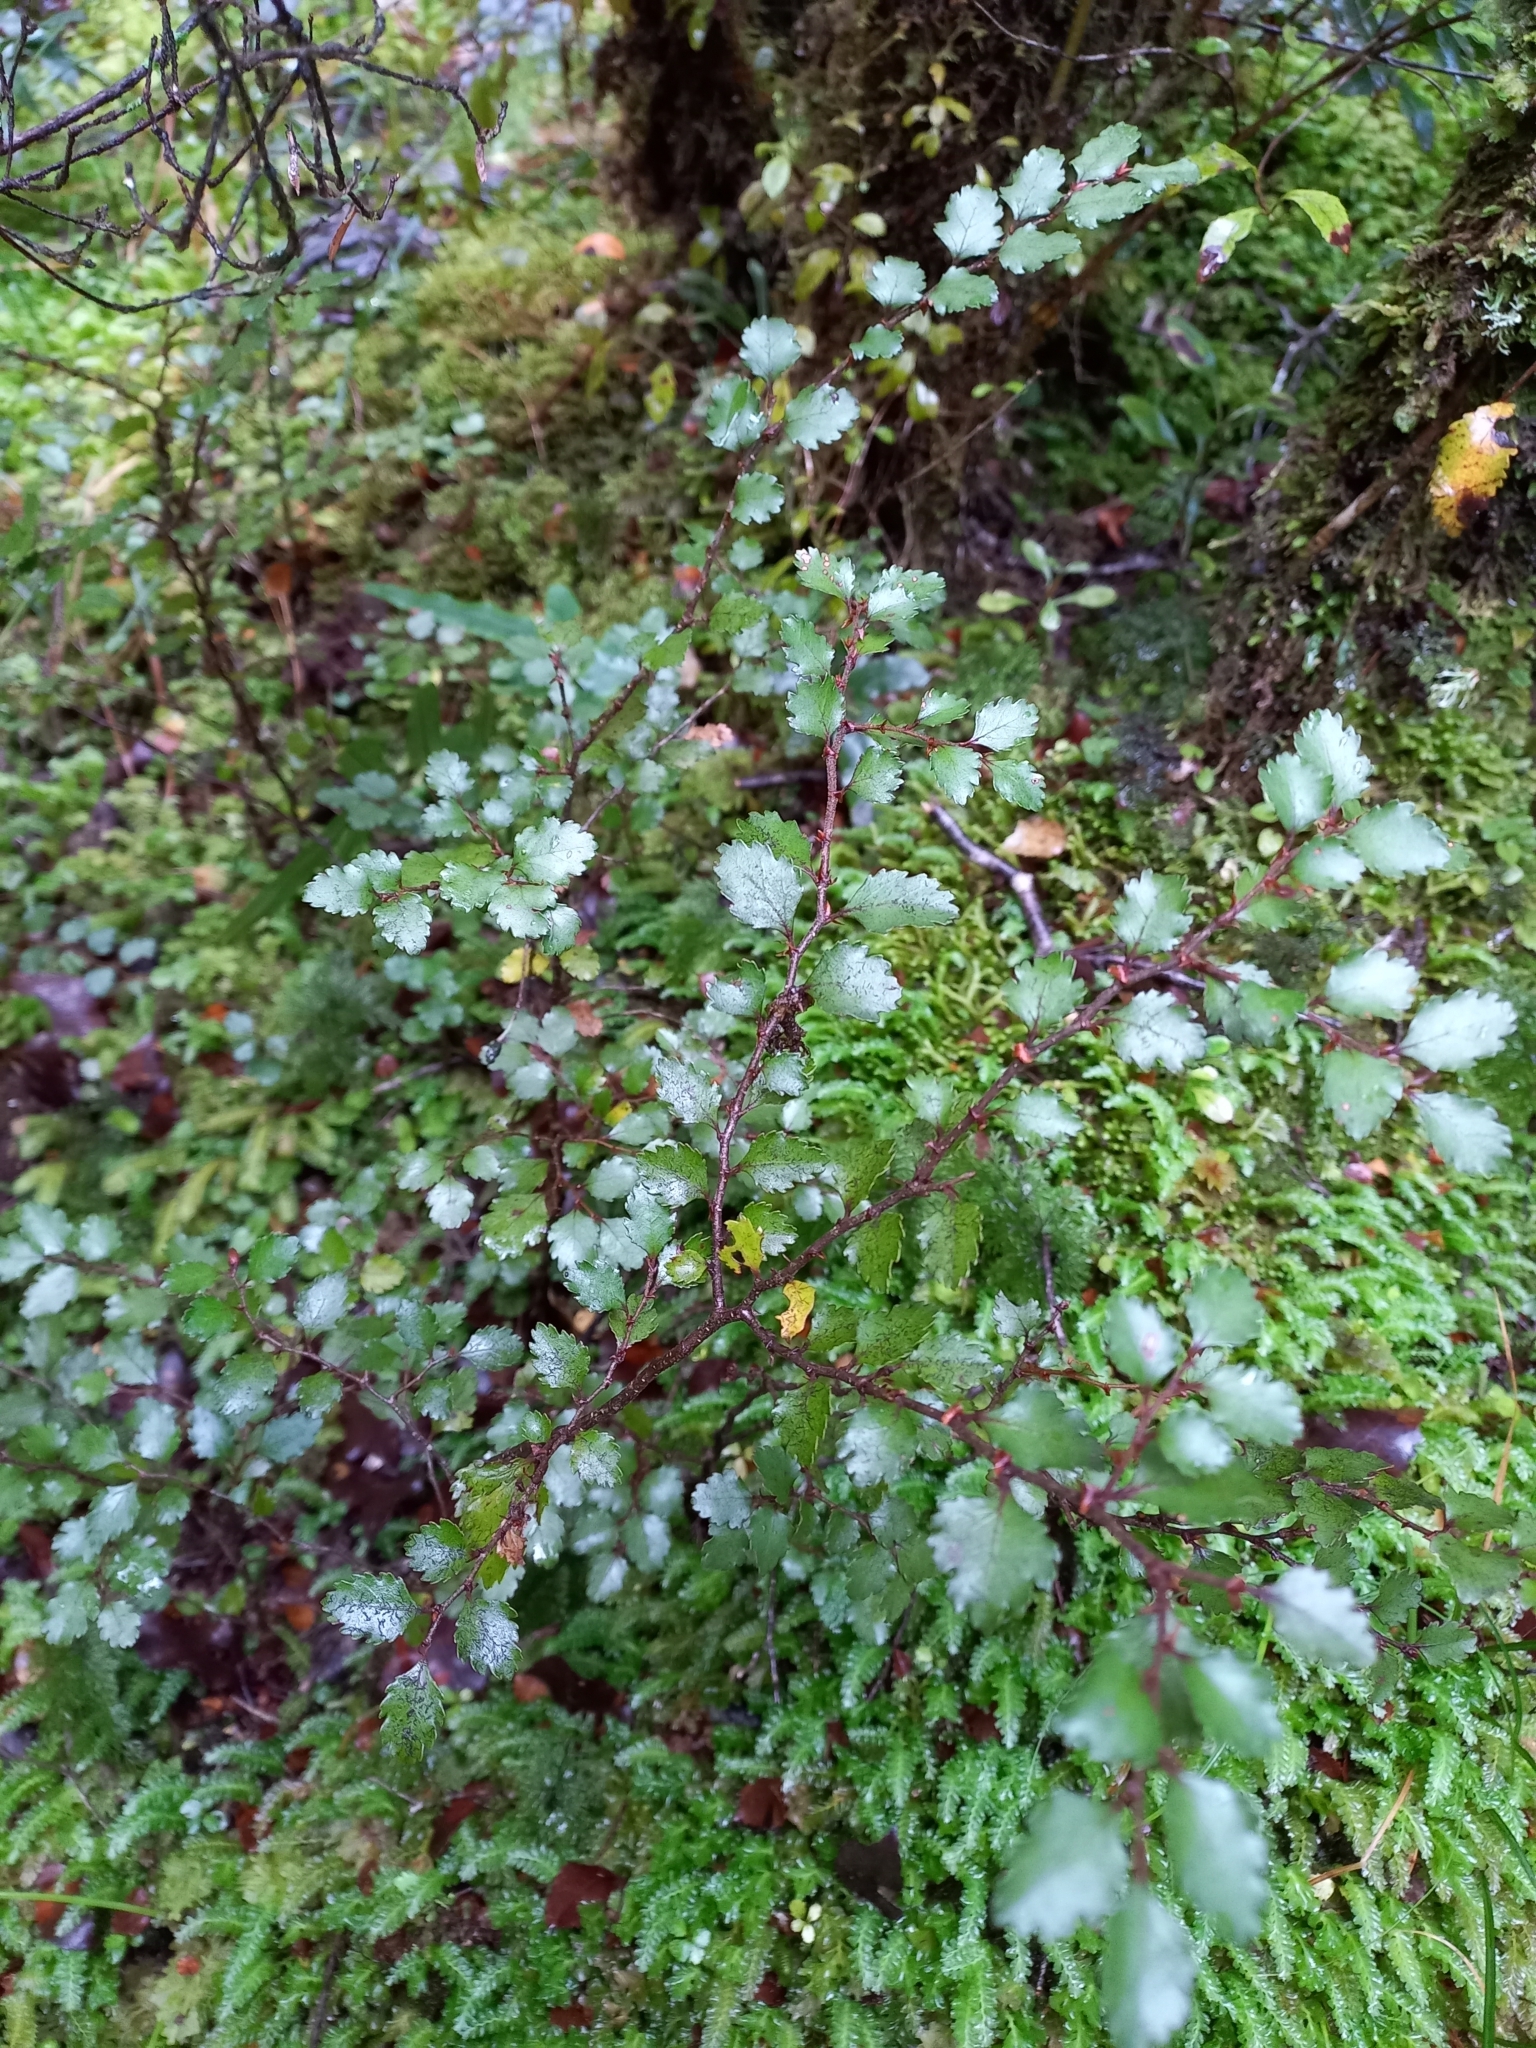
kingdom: Plantae
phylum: Tracheophyta
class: Magnoliopsida
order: Fagales
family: Nothofagaceae
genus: Nothofagus
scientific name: Nothofagus menziesii
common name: Silver beech
